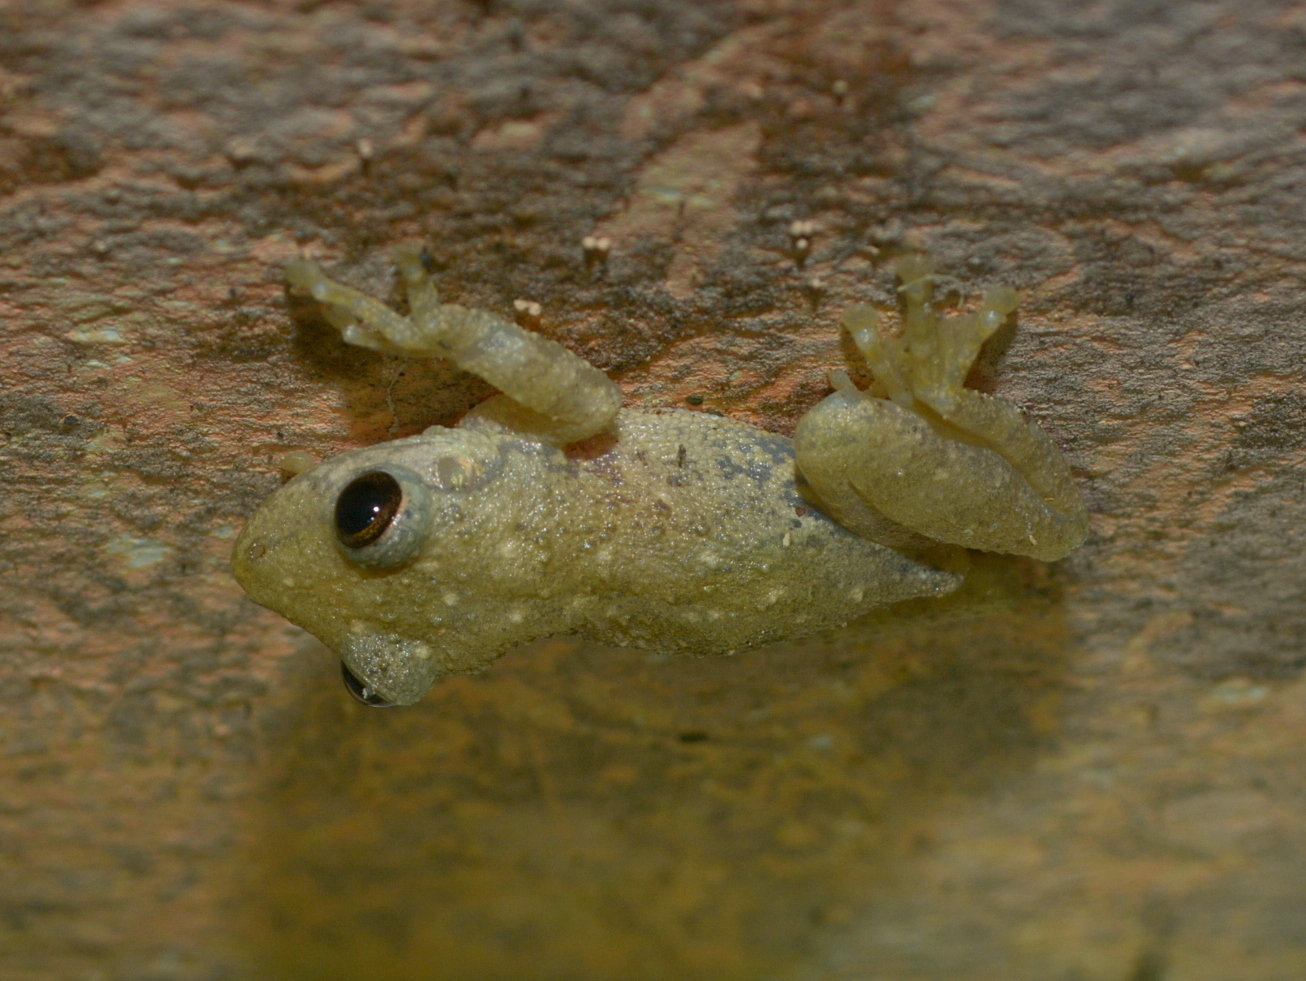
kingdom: Animalia
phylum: Chordata
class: Amphibia
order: Anura
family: Hylidae
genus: Scinax
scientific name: Scinax granulatus
